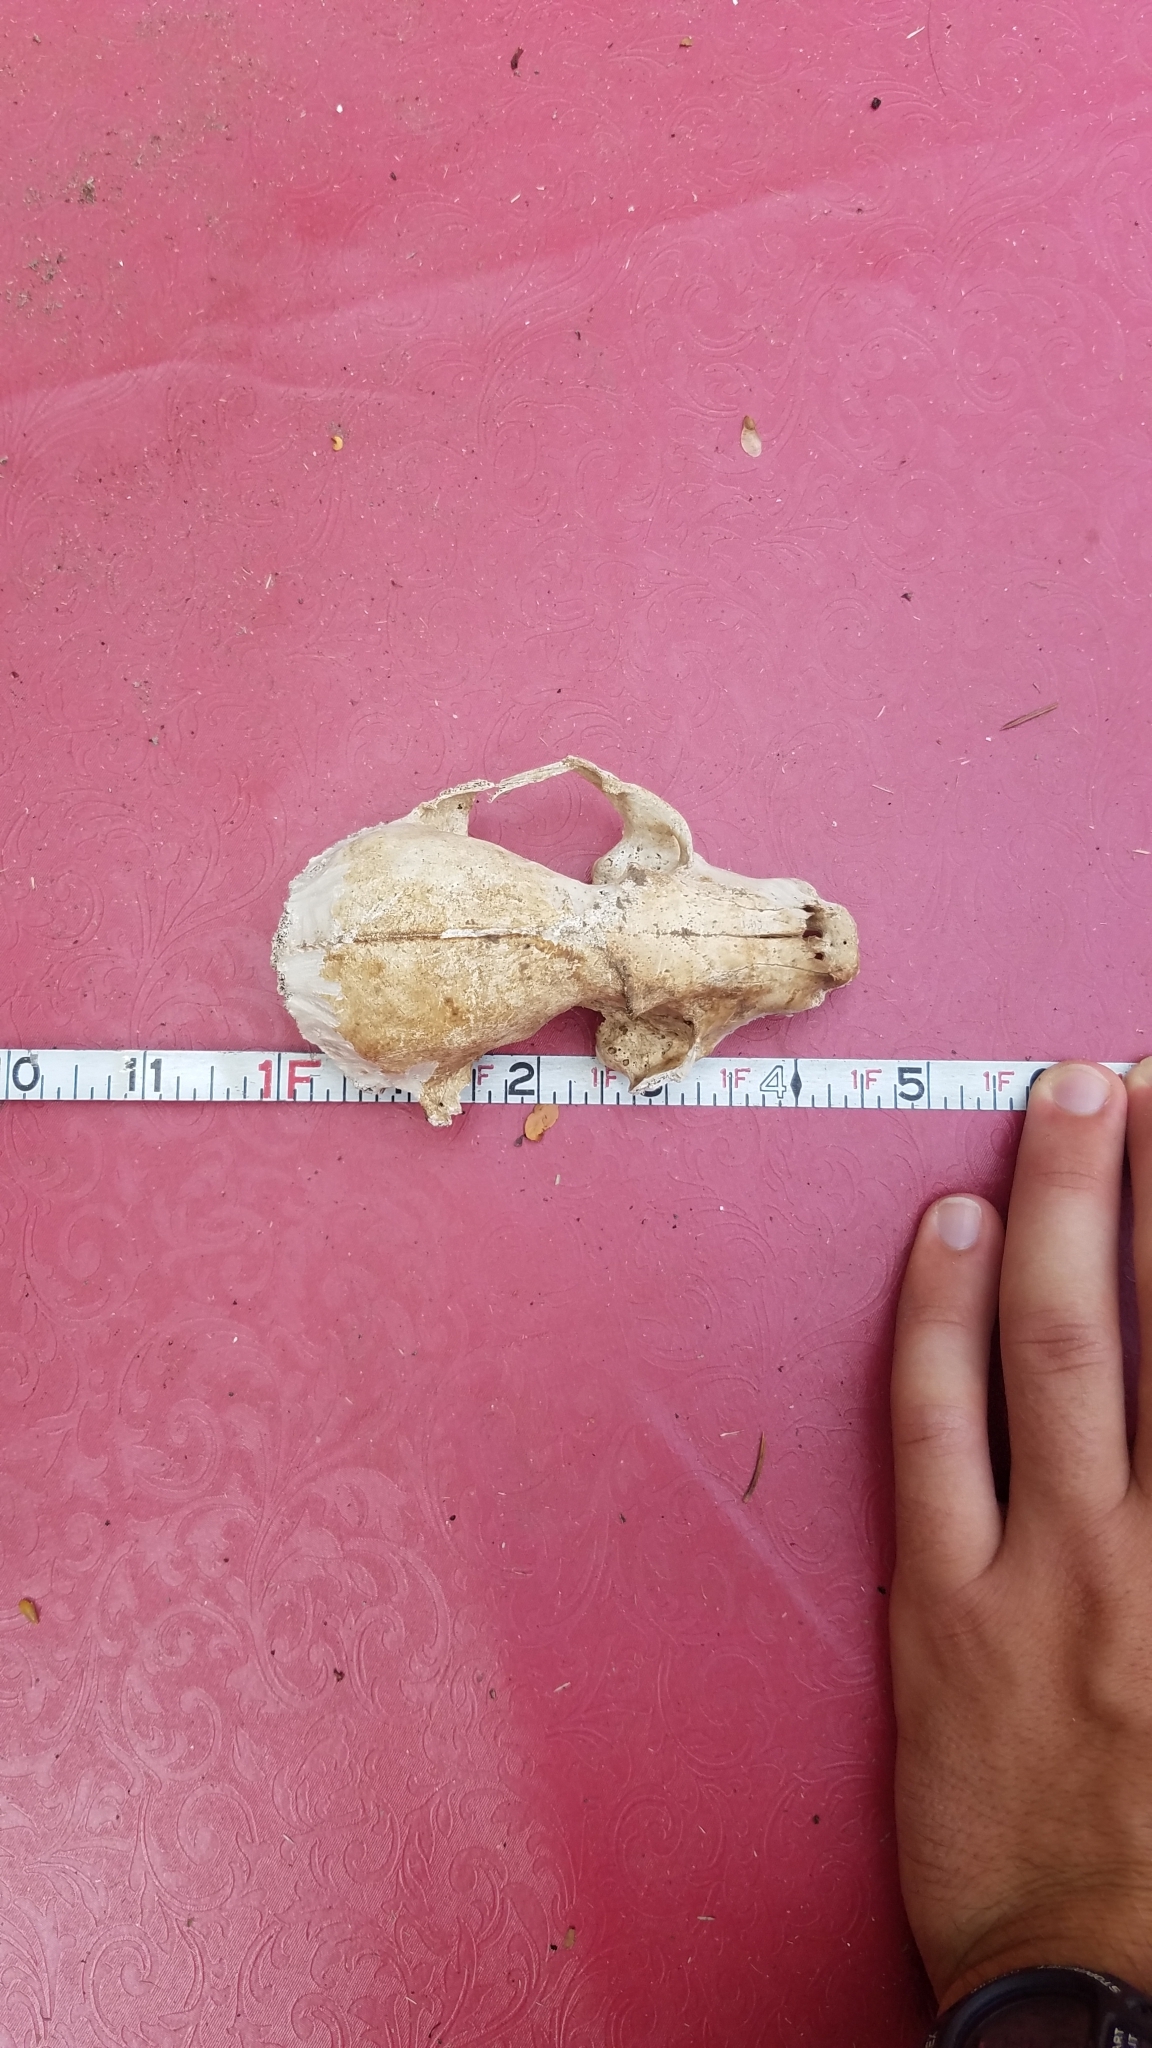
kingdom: Animalia
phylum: Chordata
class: Mammalia
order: Carnivora
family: Procyonidae
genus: Procyon
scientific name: Procyon lotor
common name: Raccoon
